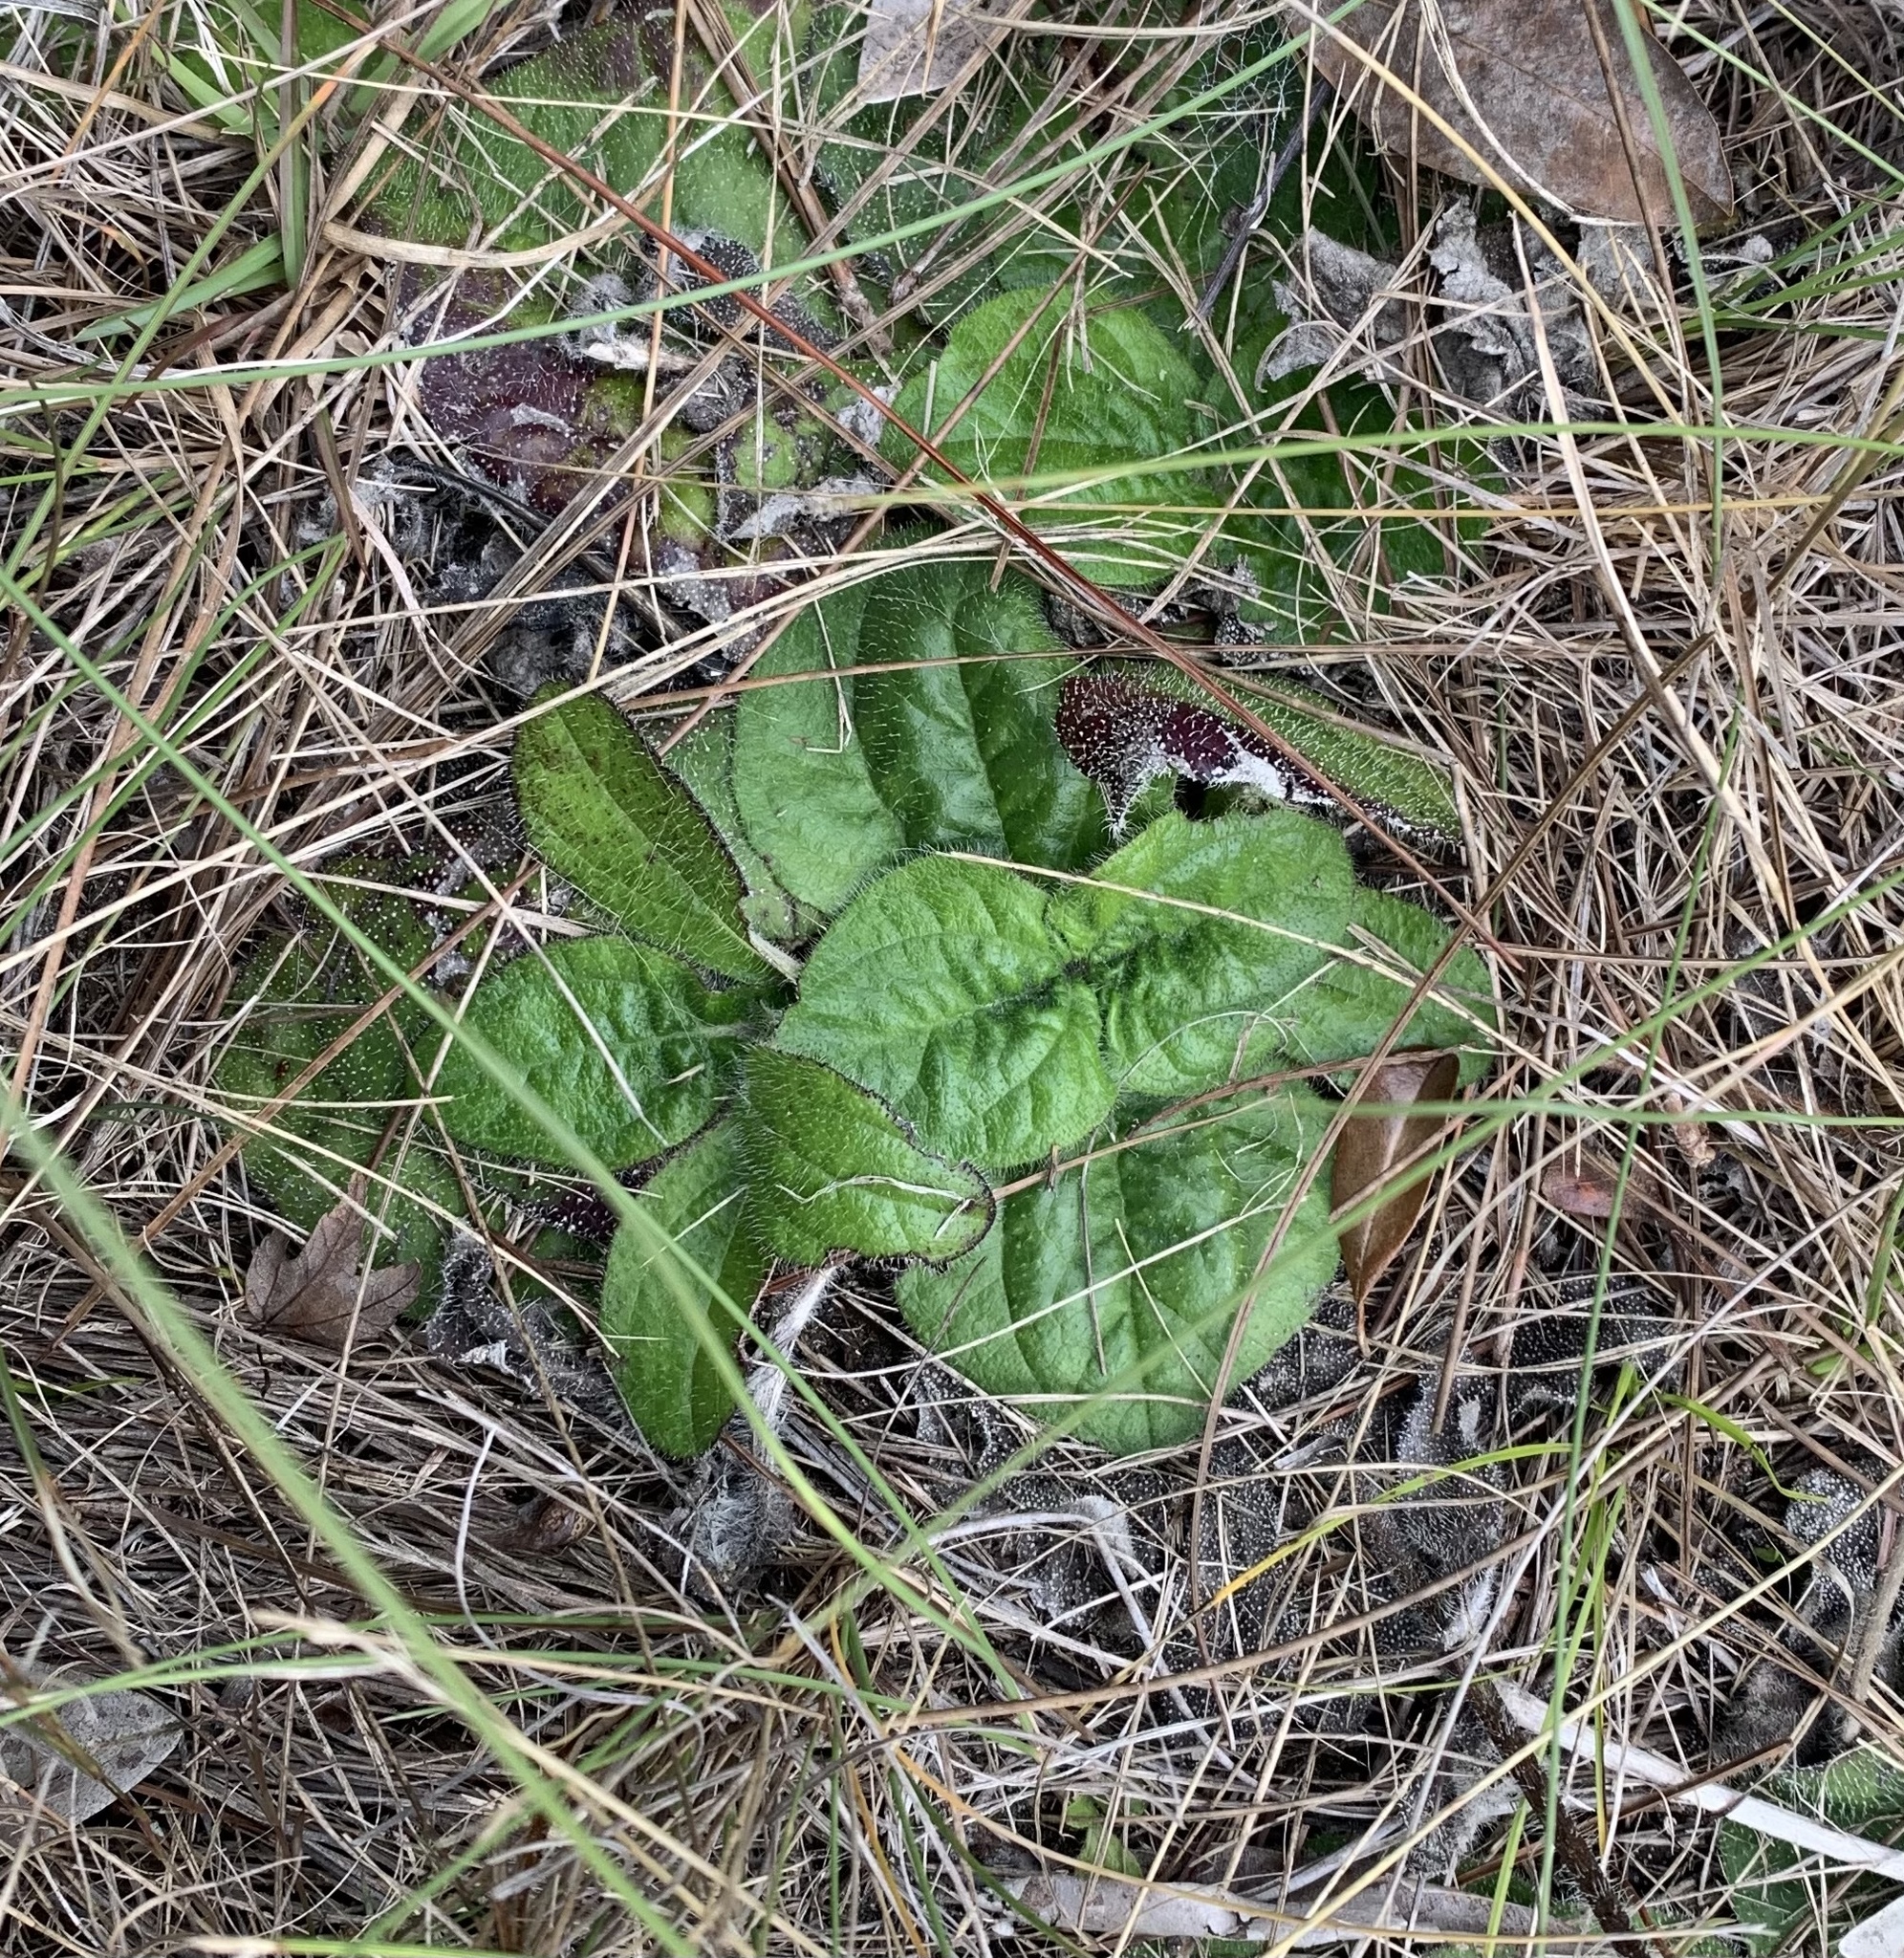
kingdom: Plantae
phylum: Tracheophyta
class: Magnoliopsida
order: Asterales
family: Asteraceae
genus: Helianthus
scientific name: Helianthus radula
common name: Pineland sunflower
